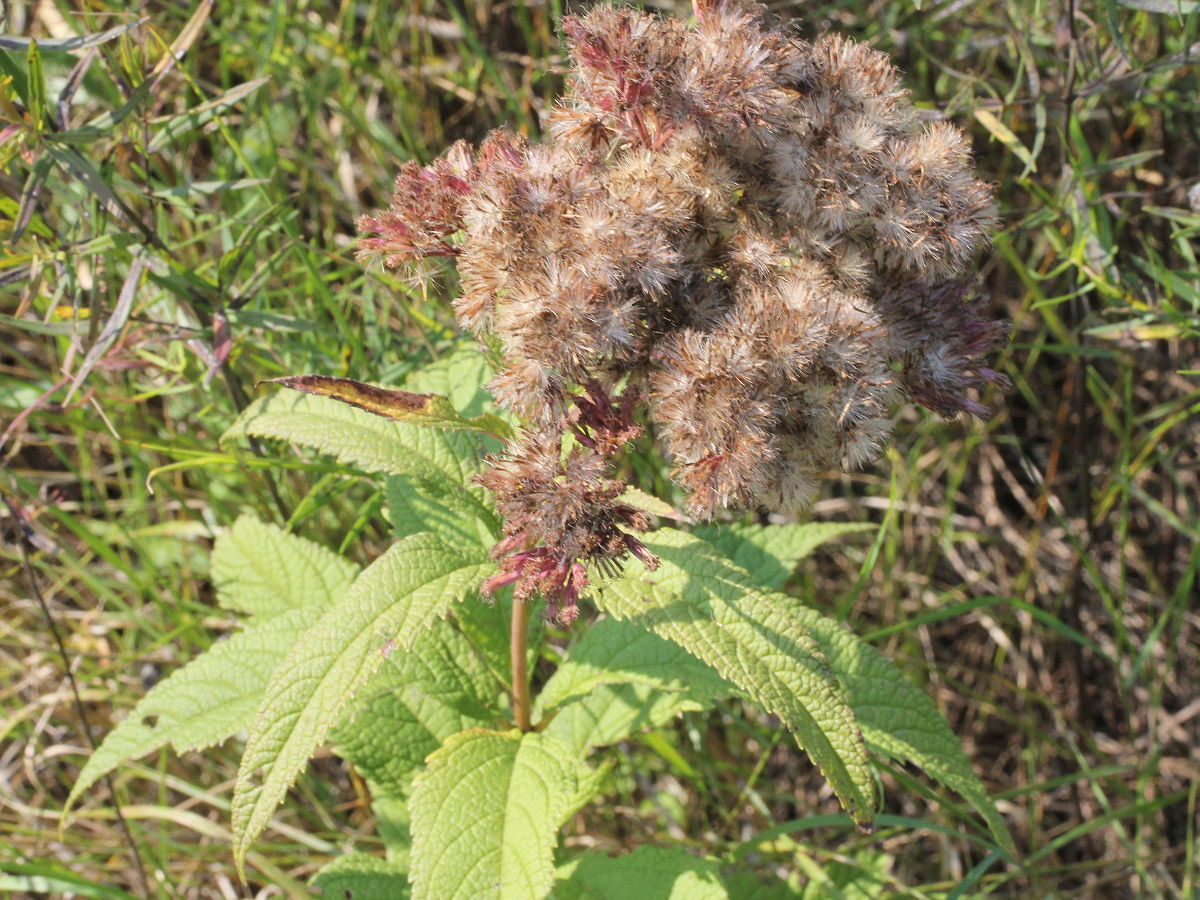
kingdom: Plantae
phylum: Tracheophyta
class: Magnoliopsida
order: Asterales
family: Asteraceae
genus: Eutrochium
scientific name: Eutrochium purpureum
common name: Gravelroot
